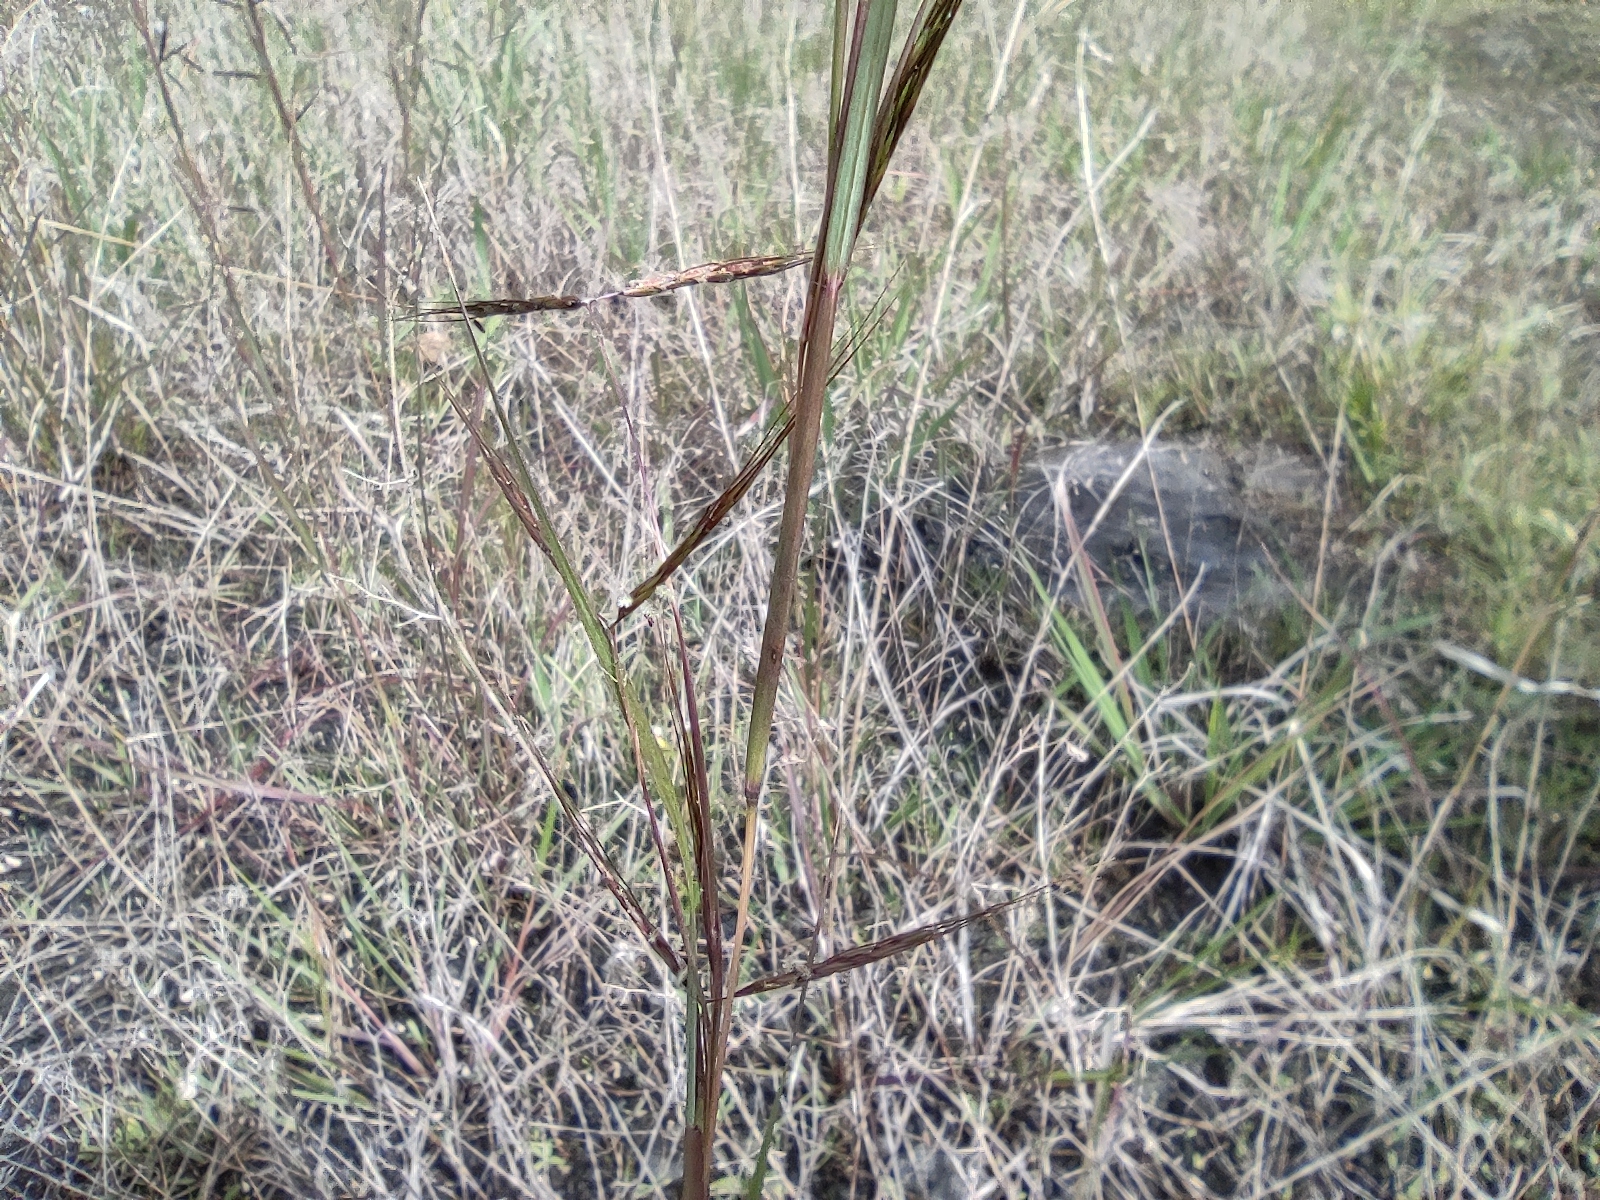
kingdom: Plantae
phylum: Tracheophyta
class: Liliopsida
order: Poales
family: Poaceae
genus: Hyparrhenia
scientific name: Hyparrhenia rufa
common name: Jaraguagrass
